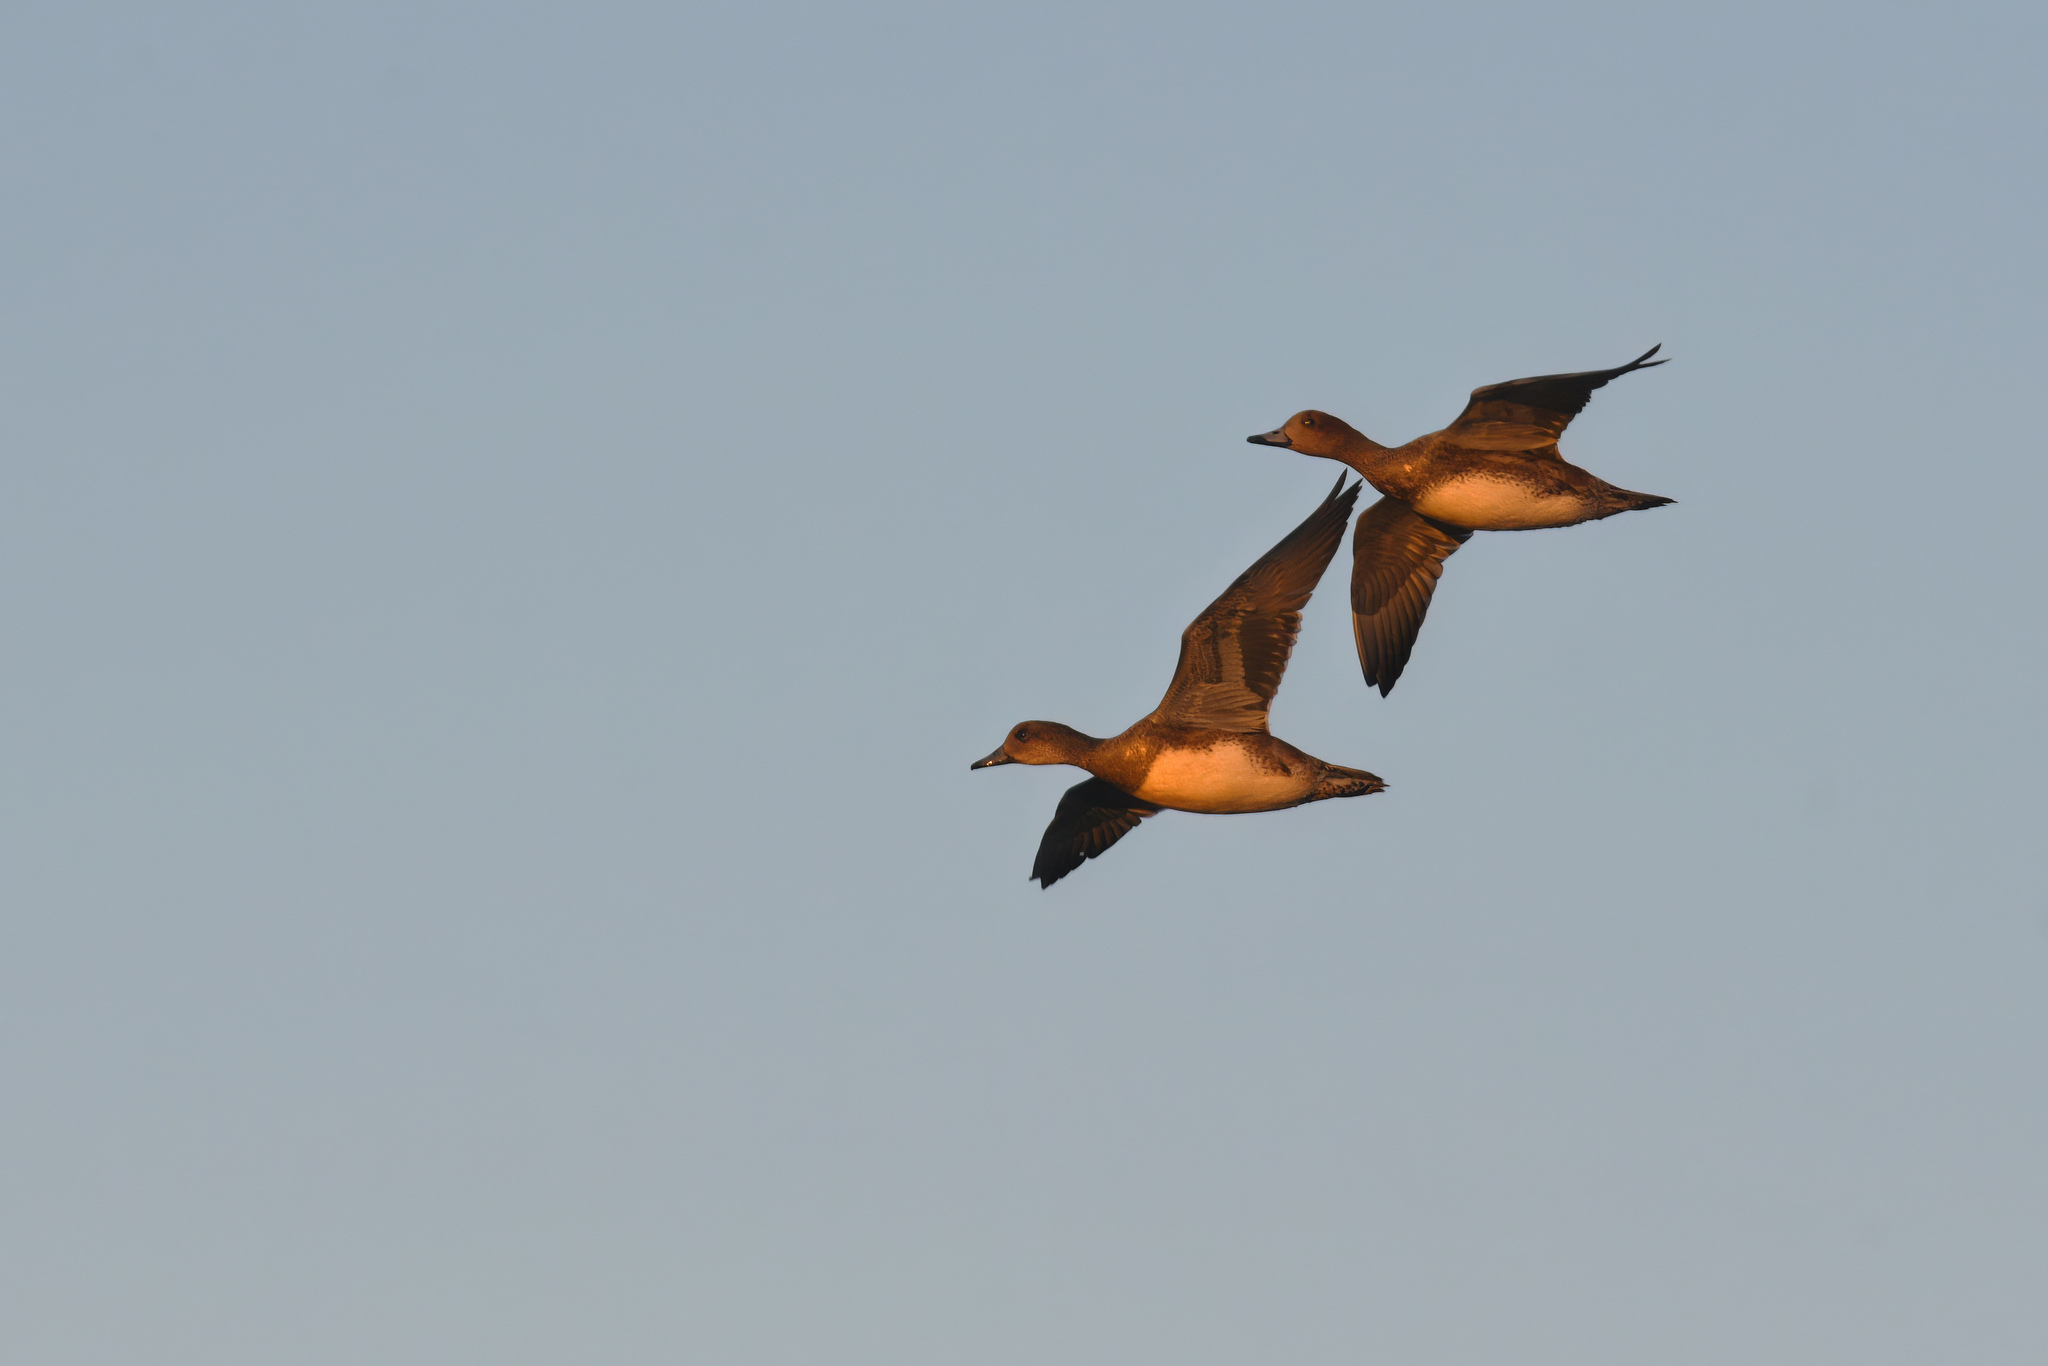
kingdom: Animalia
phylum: Chordata
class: Aves
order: Anseriformes
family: Anatidae
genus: Mareca
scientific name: Mareca penelope
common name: Eurasian wigeon
